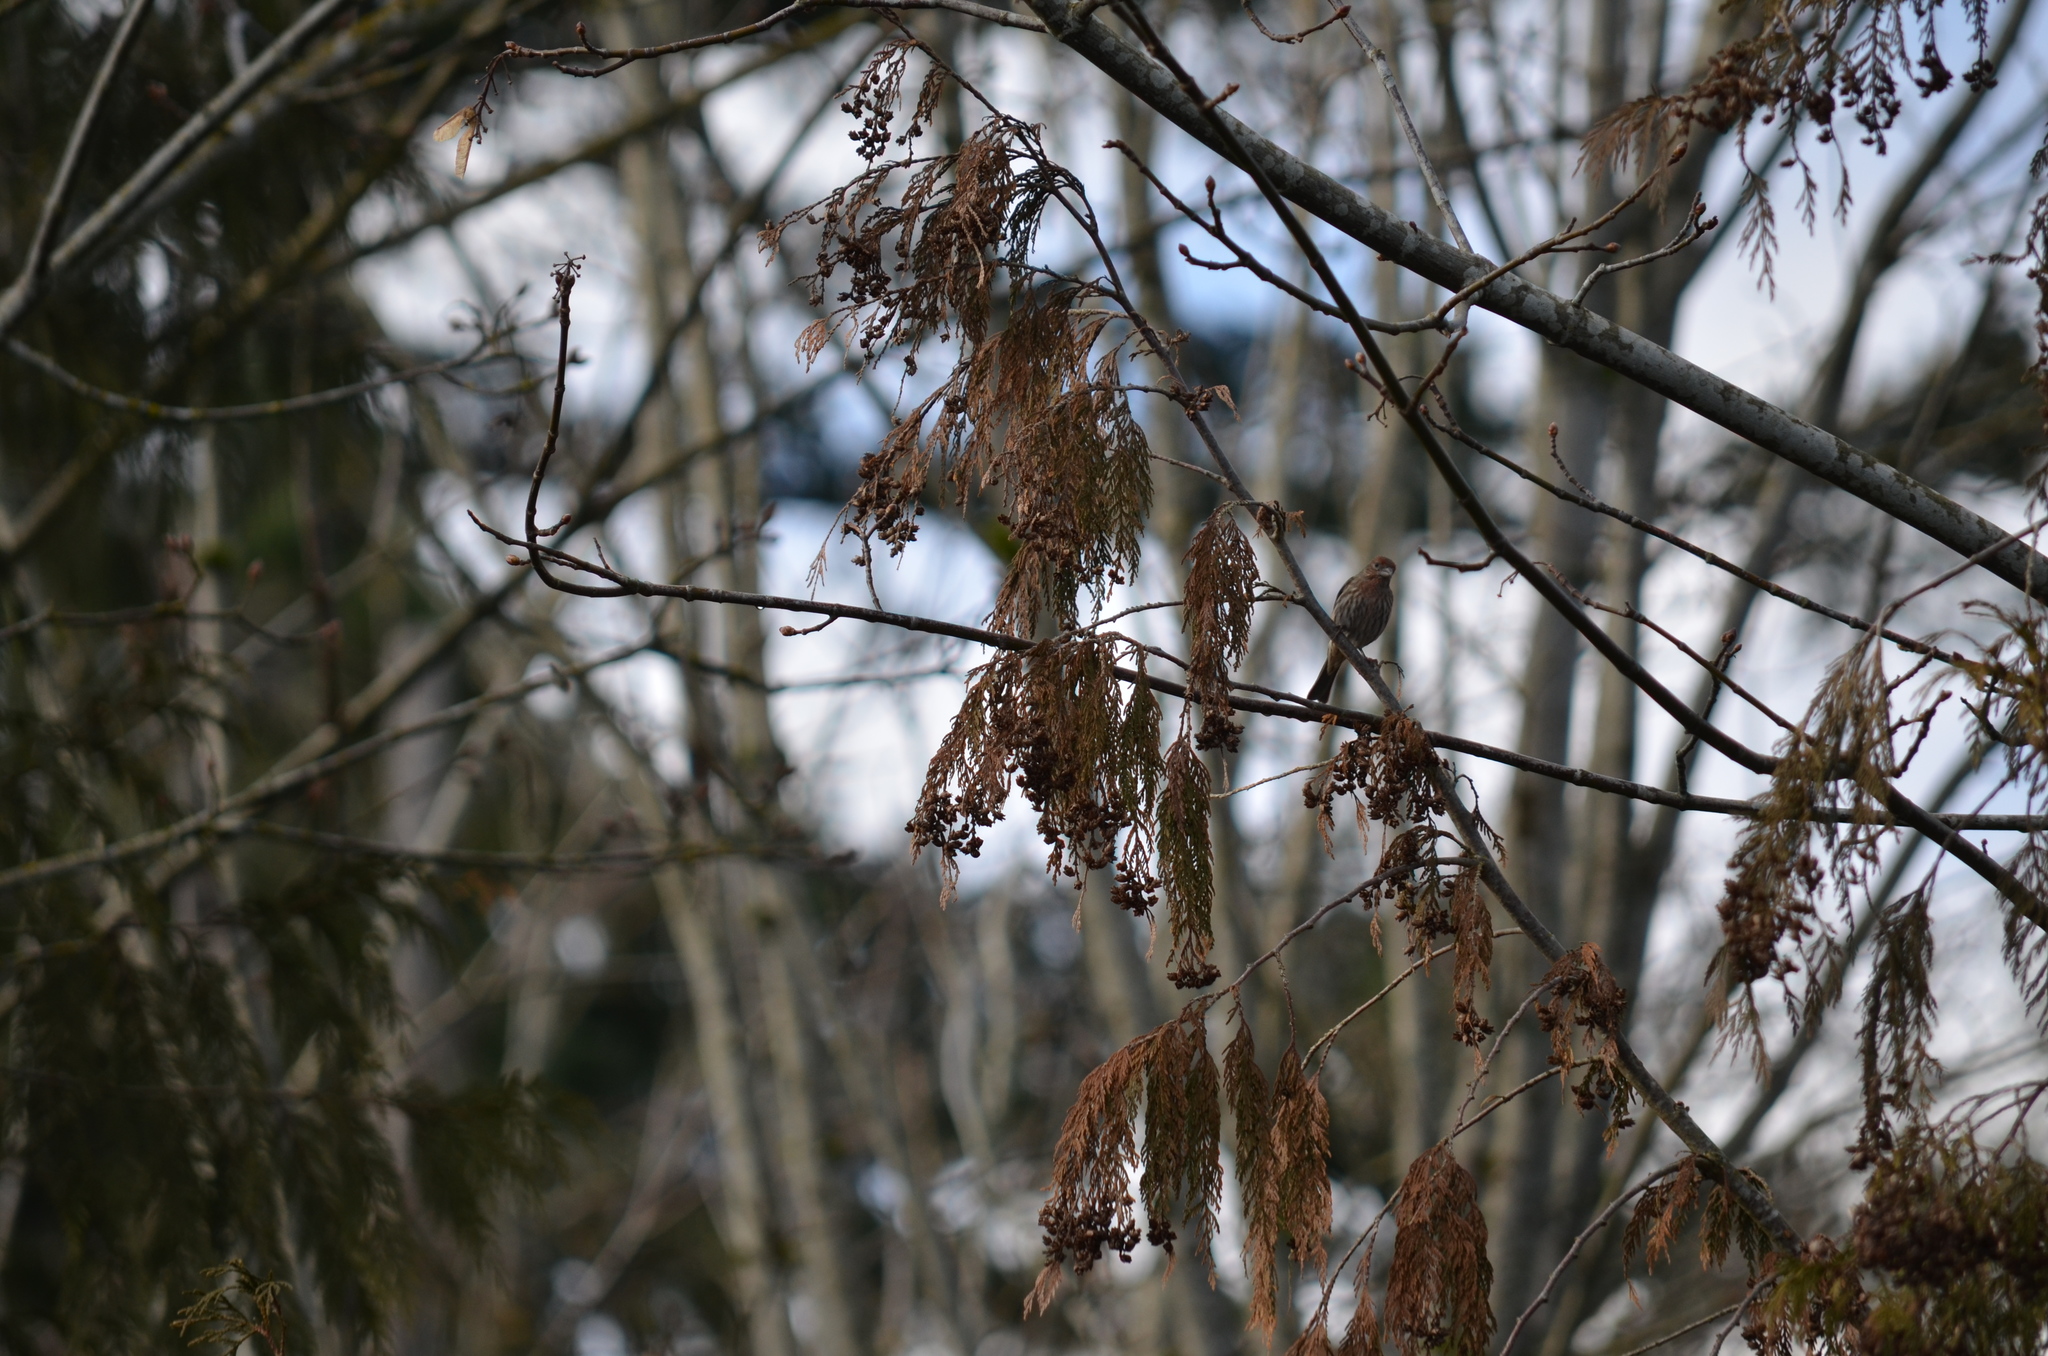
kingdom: Animalia
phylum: Chordata
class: Aves
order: Passeriformes
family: Fringillidae
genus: Haemorhous
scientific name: Haemorhous mexicanus
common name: House finch
